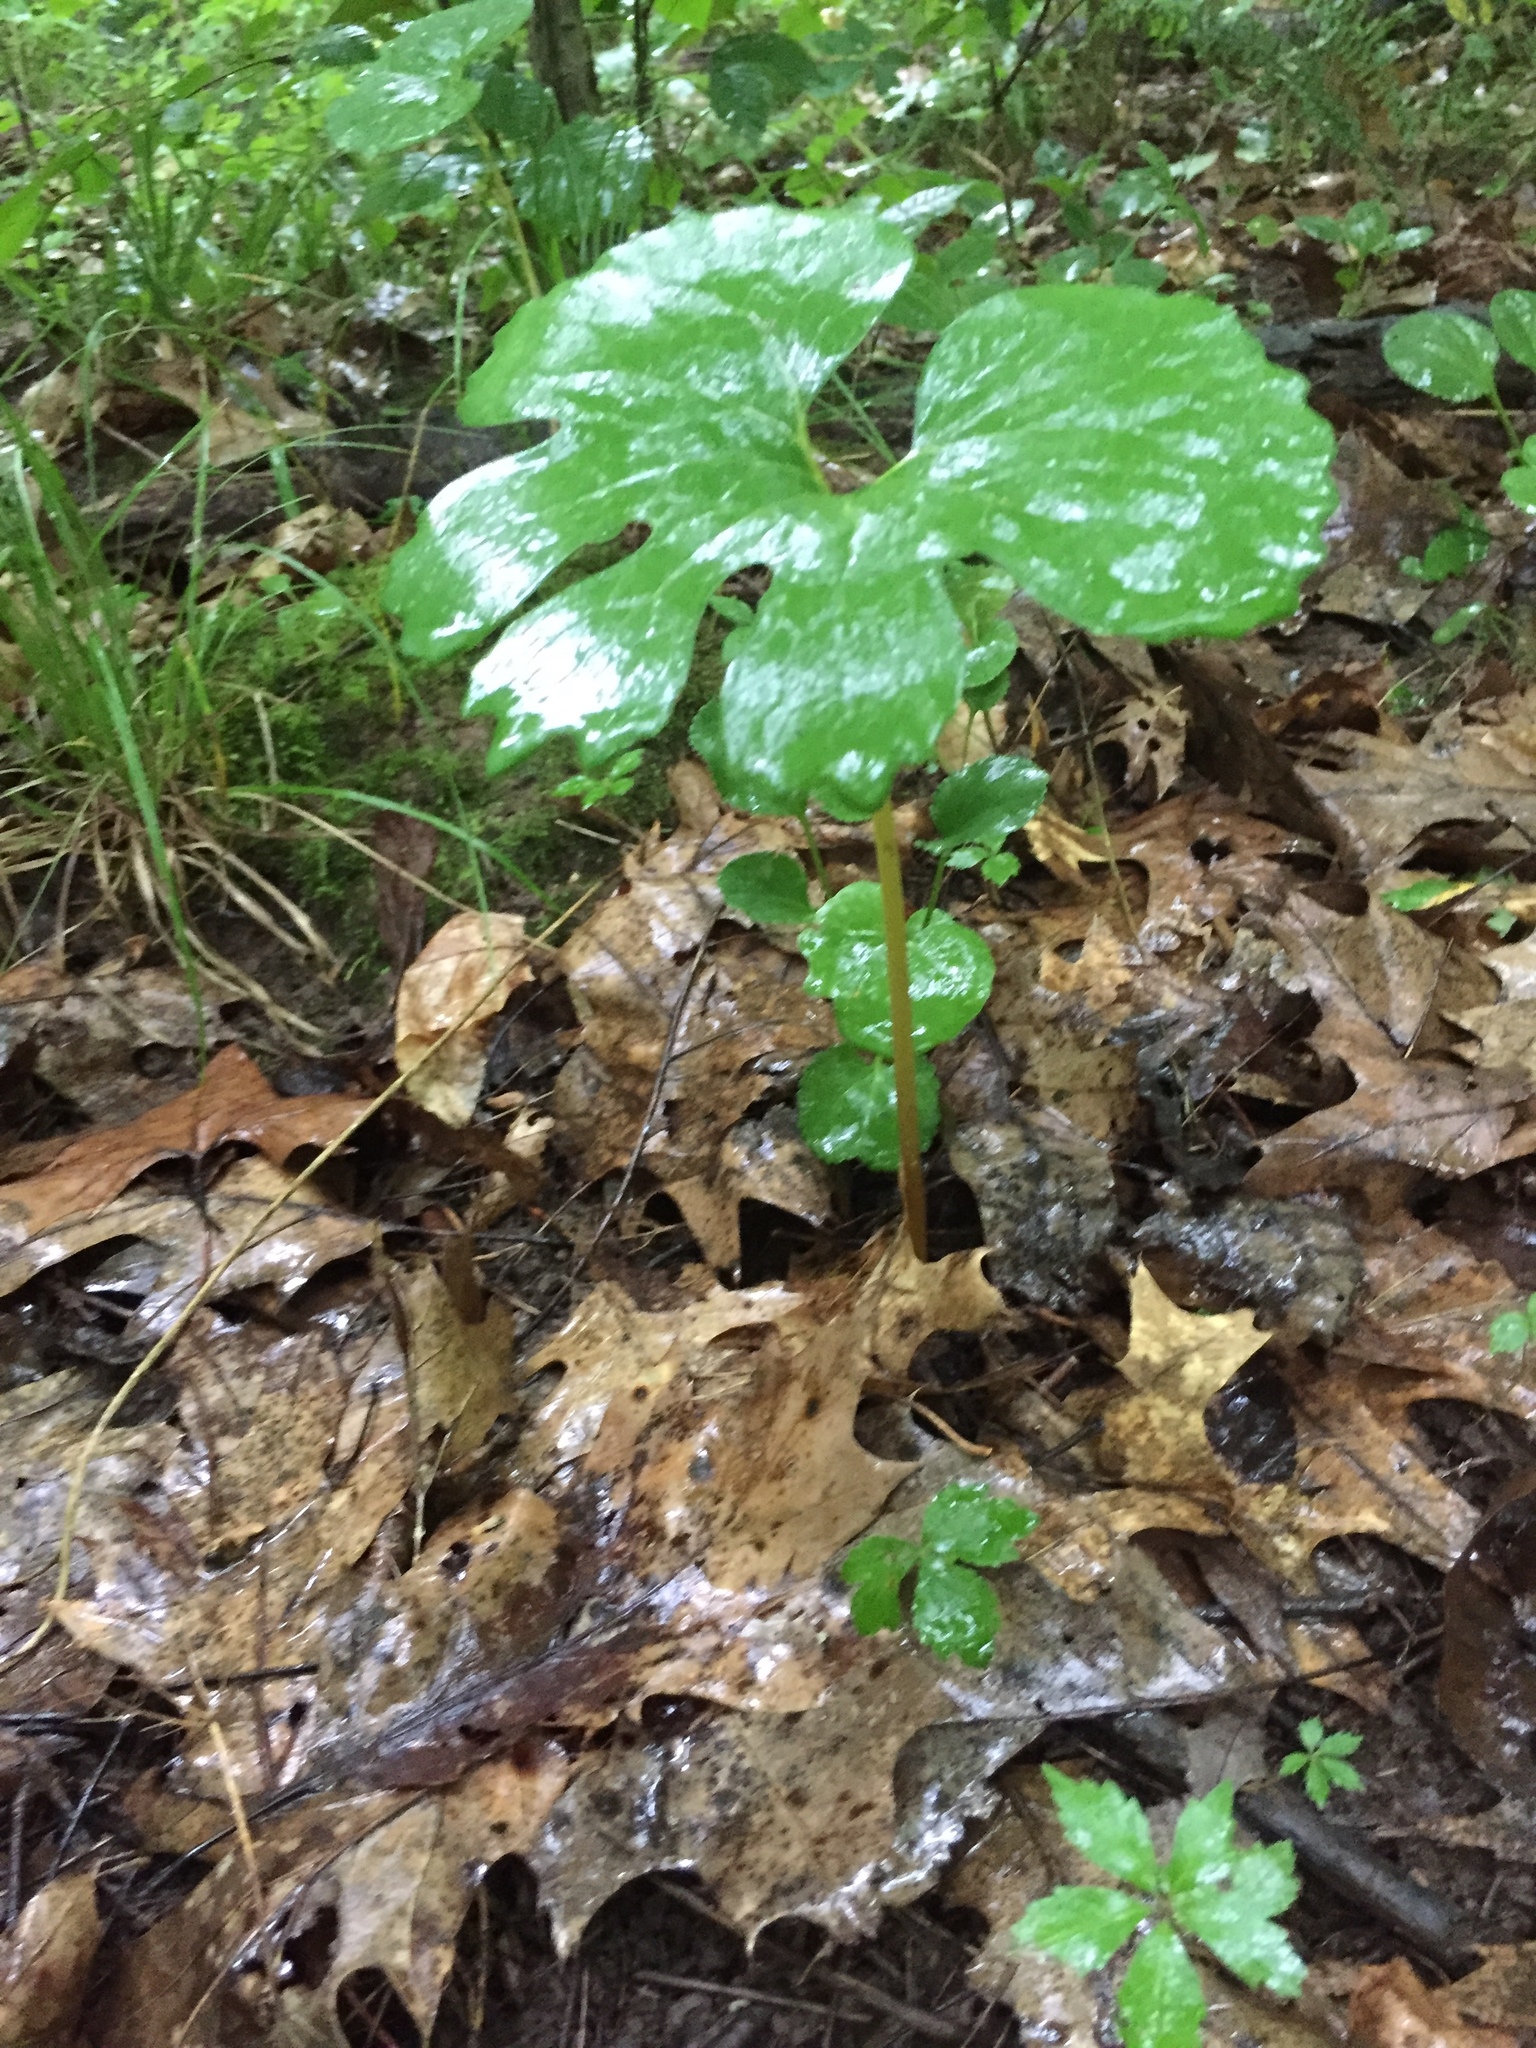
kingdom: Plantae
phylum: Tracheophyta
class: Magnoliopsida
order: Ranunculales
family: Papaveraceae
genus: Sanguinaria
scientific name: Sanguinaria canadensis
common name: Bloodroot
